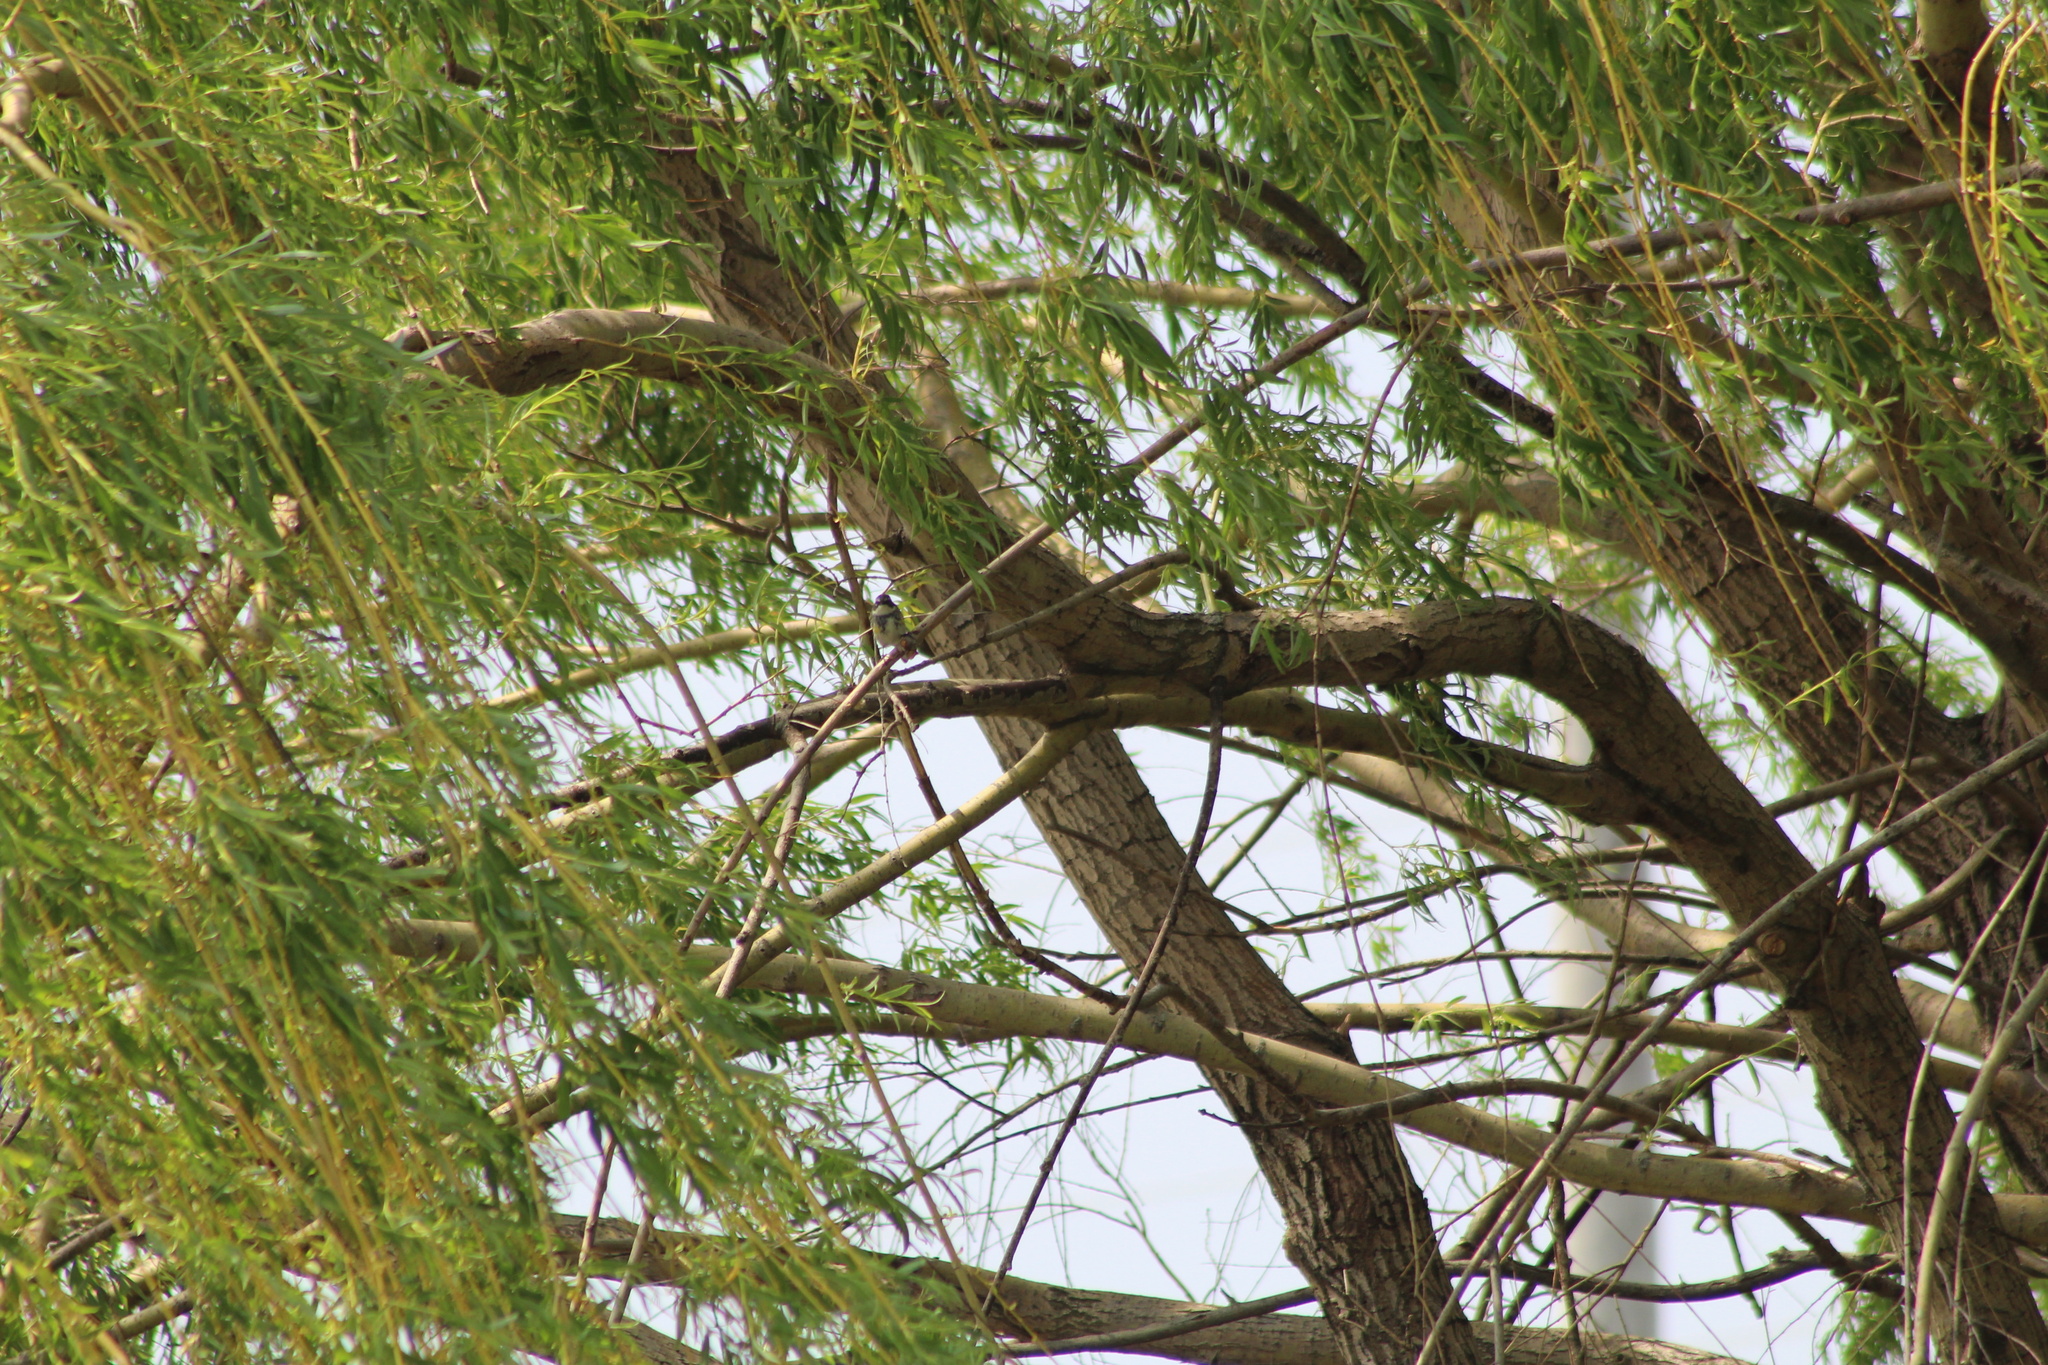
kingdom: Animalia
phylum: Chordata
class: Aves
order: Passeriformes
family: Parulidae
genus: Setophaga
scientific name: Setophaga coronata
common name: Myrtle warbler
